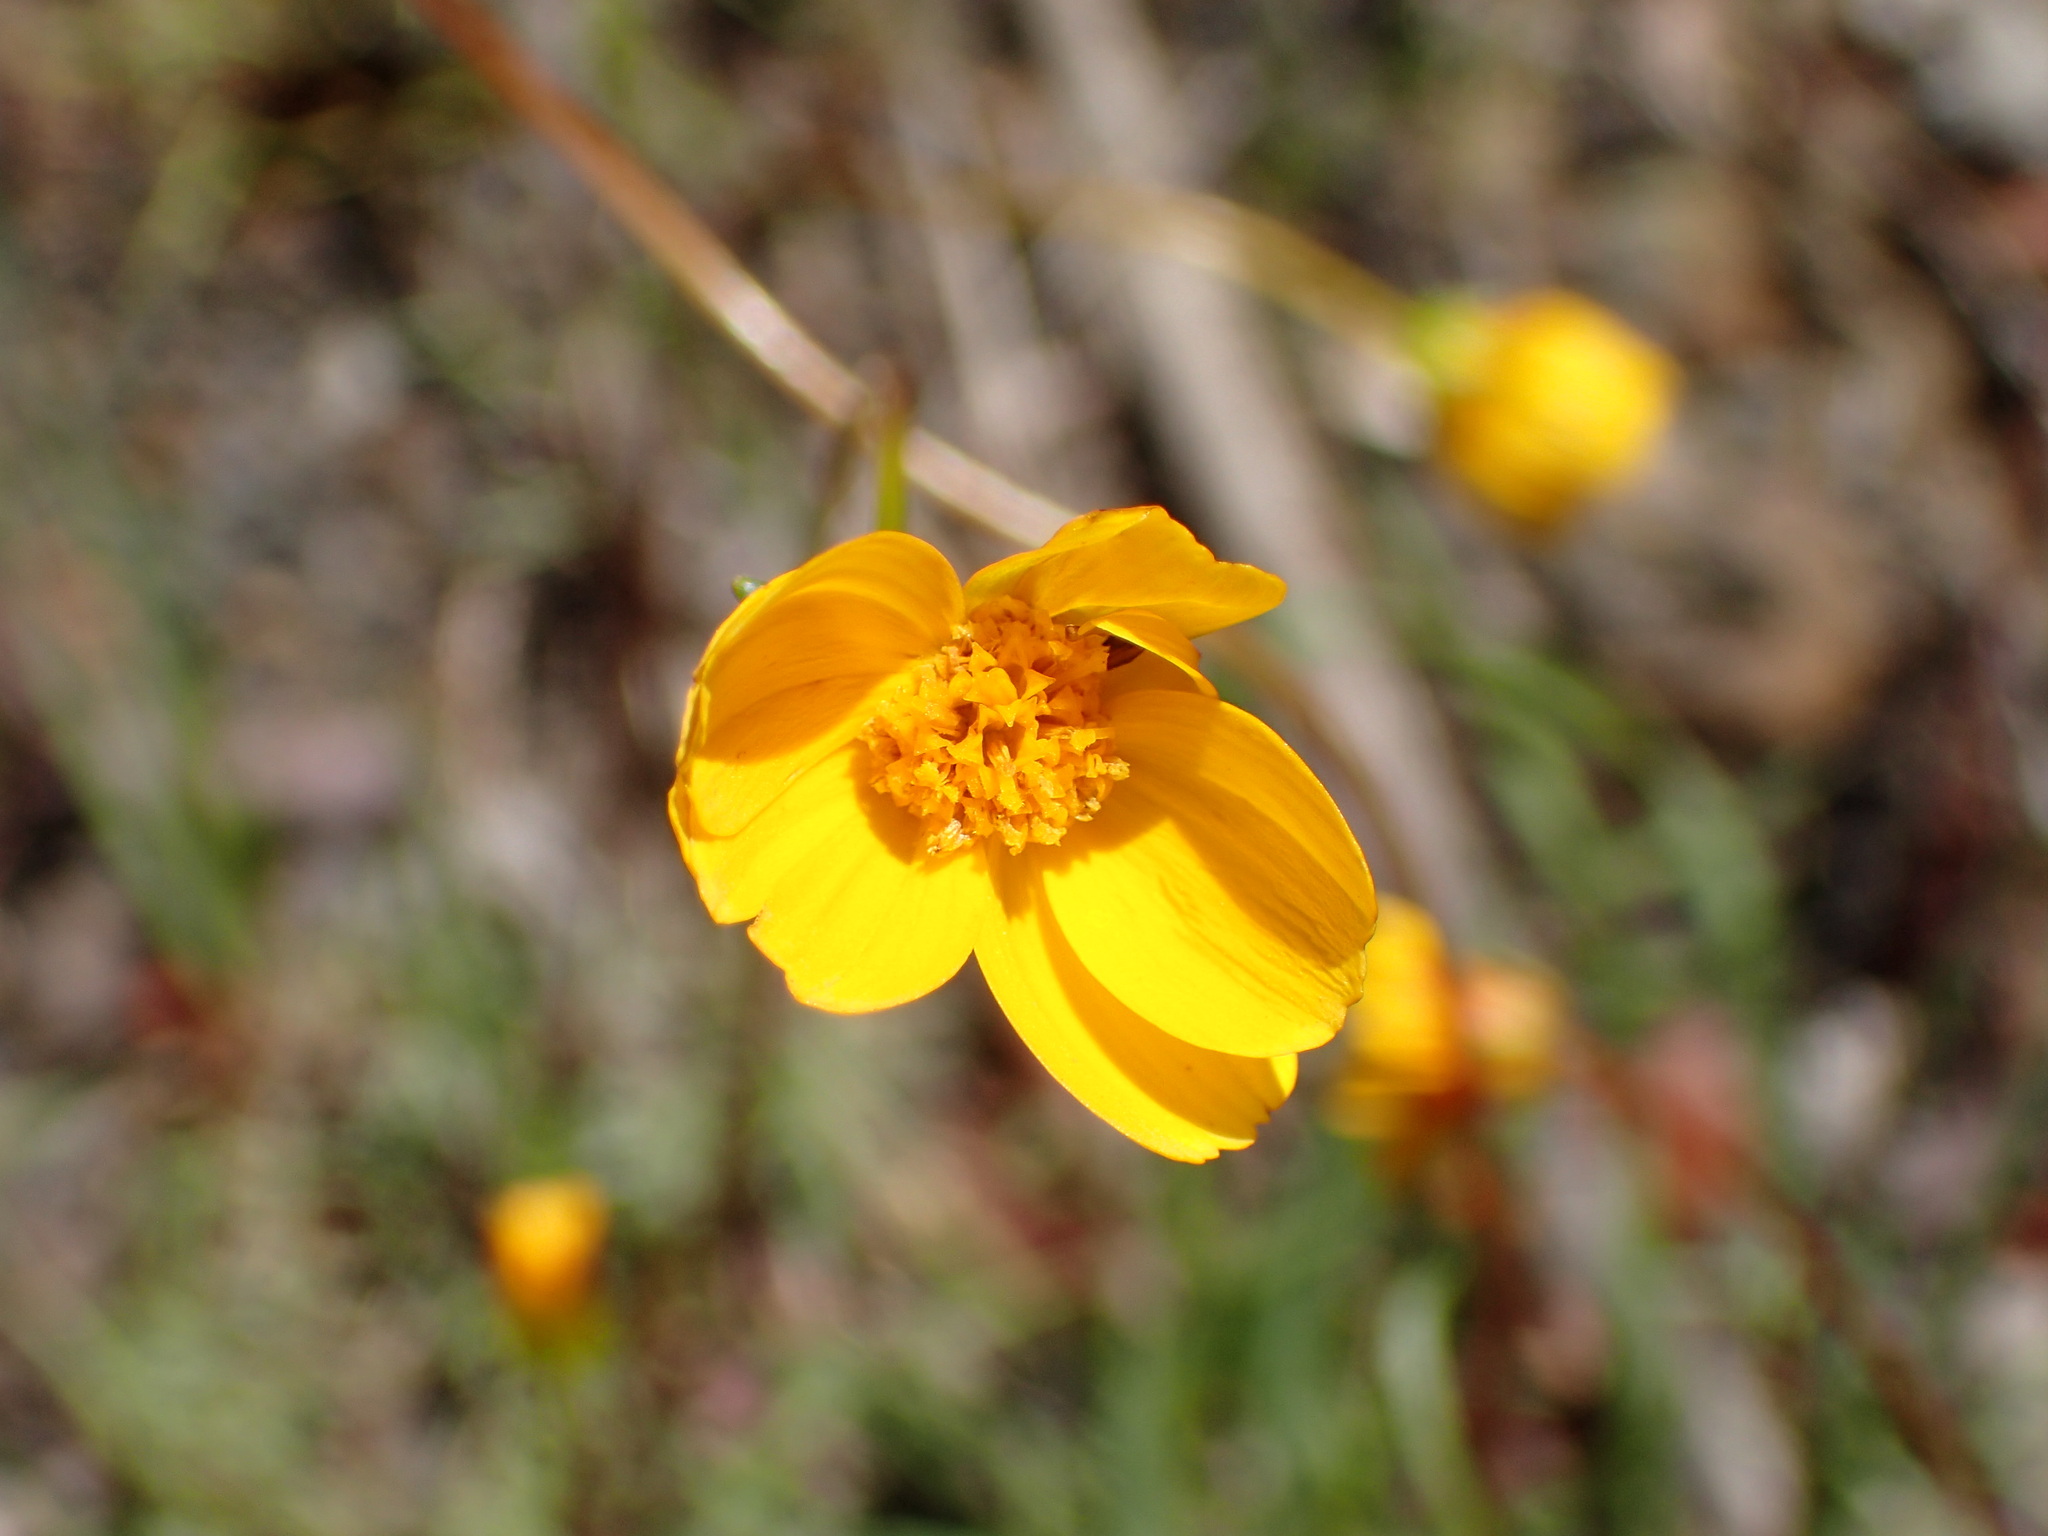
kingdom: Plantae
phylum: Tracheophyta
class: Magnoliopsida
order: Asterales
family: Asteraceae
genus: Coreopsis
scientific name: Coreopsis bigelovii
